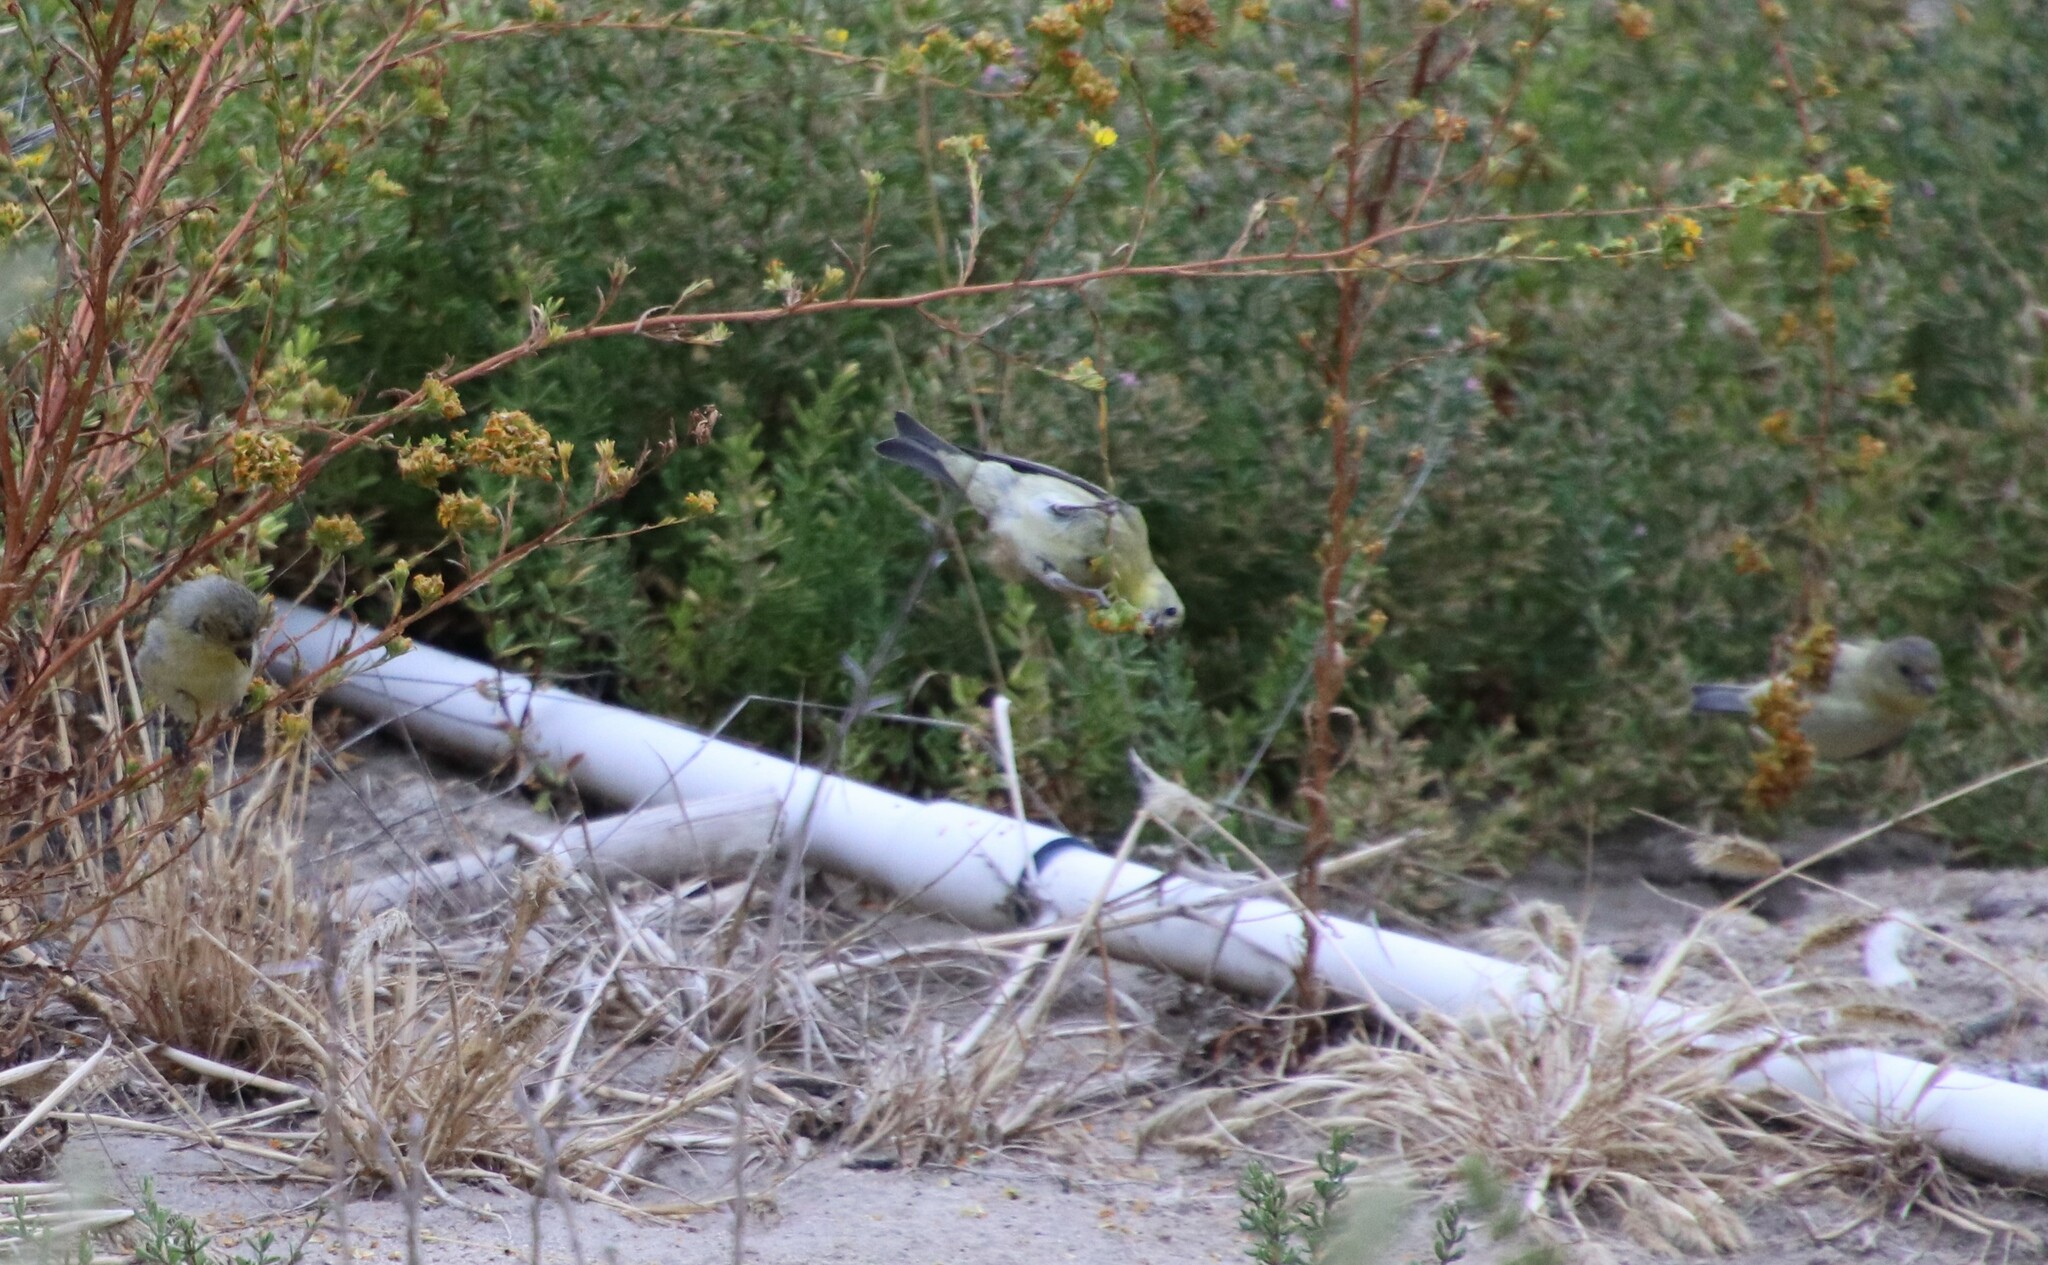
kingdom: Animalia
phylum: Chordata
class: Aves
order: Passeriformes
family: Fringillidae
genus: Spinus
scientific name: Spinus psaltria
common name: Lesser goldfinch
